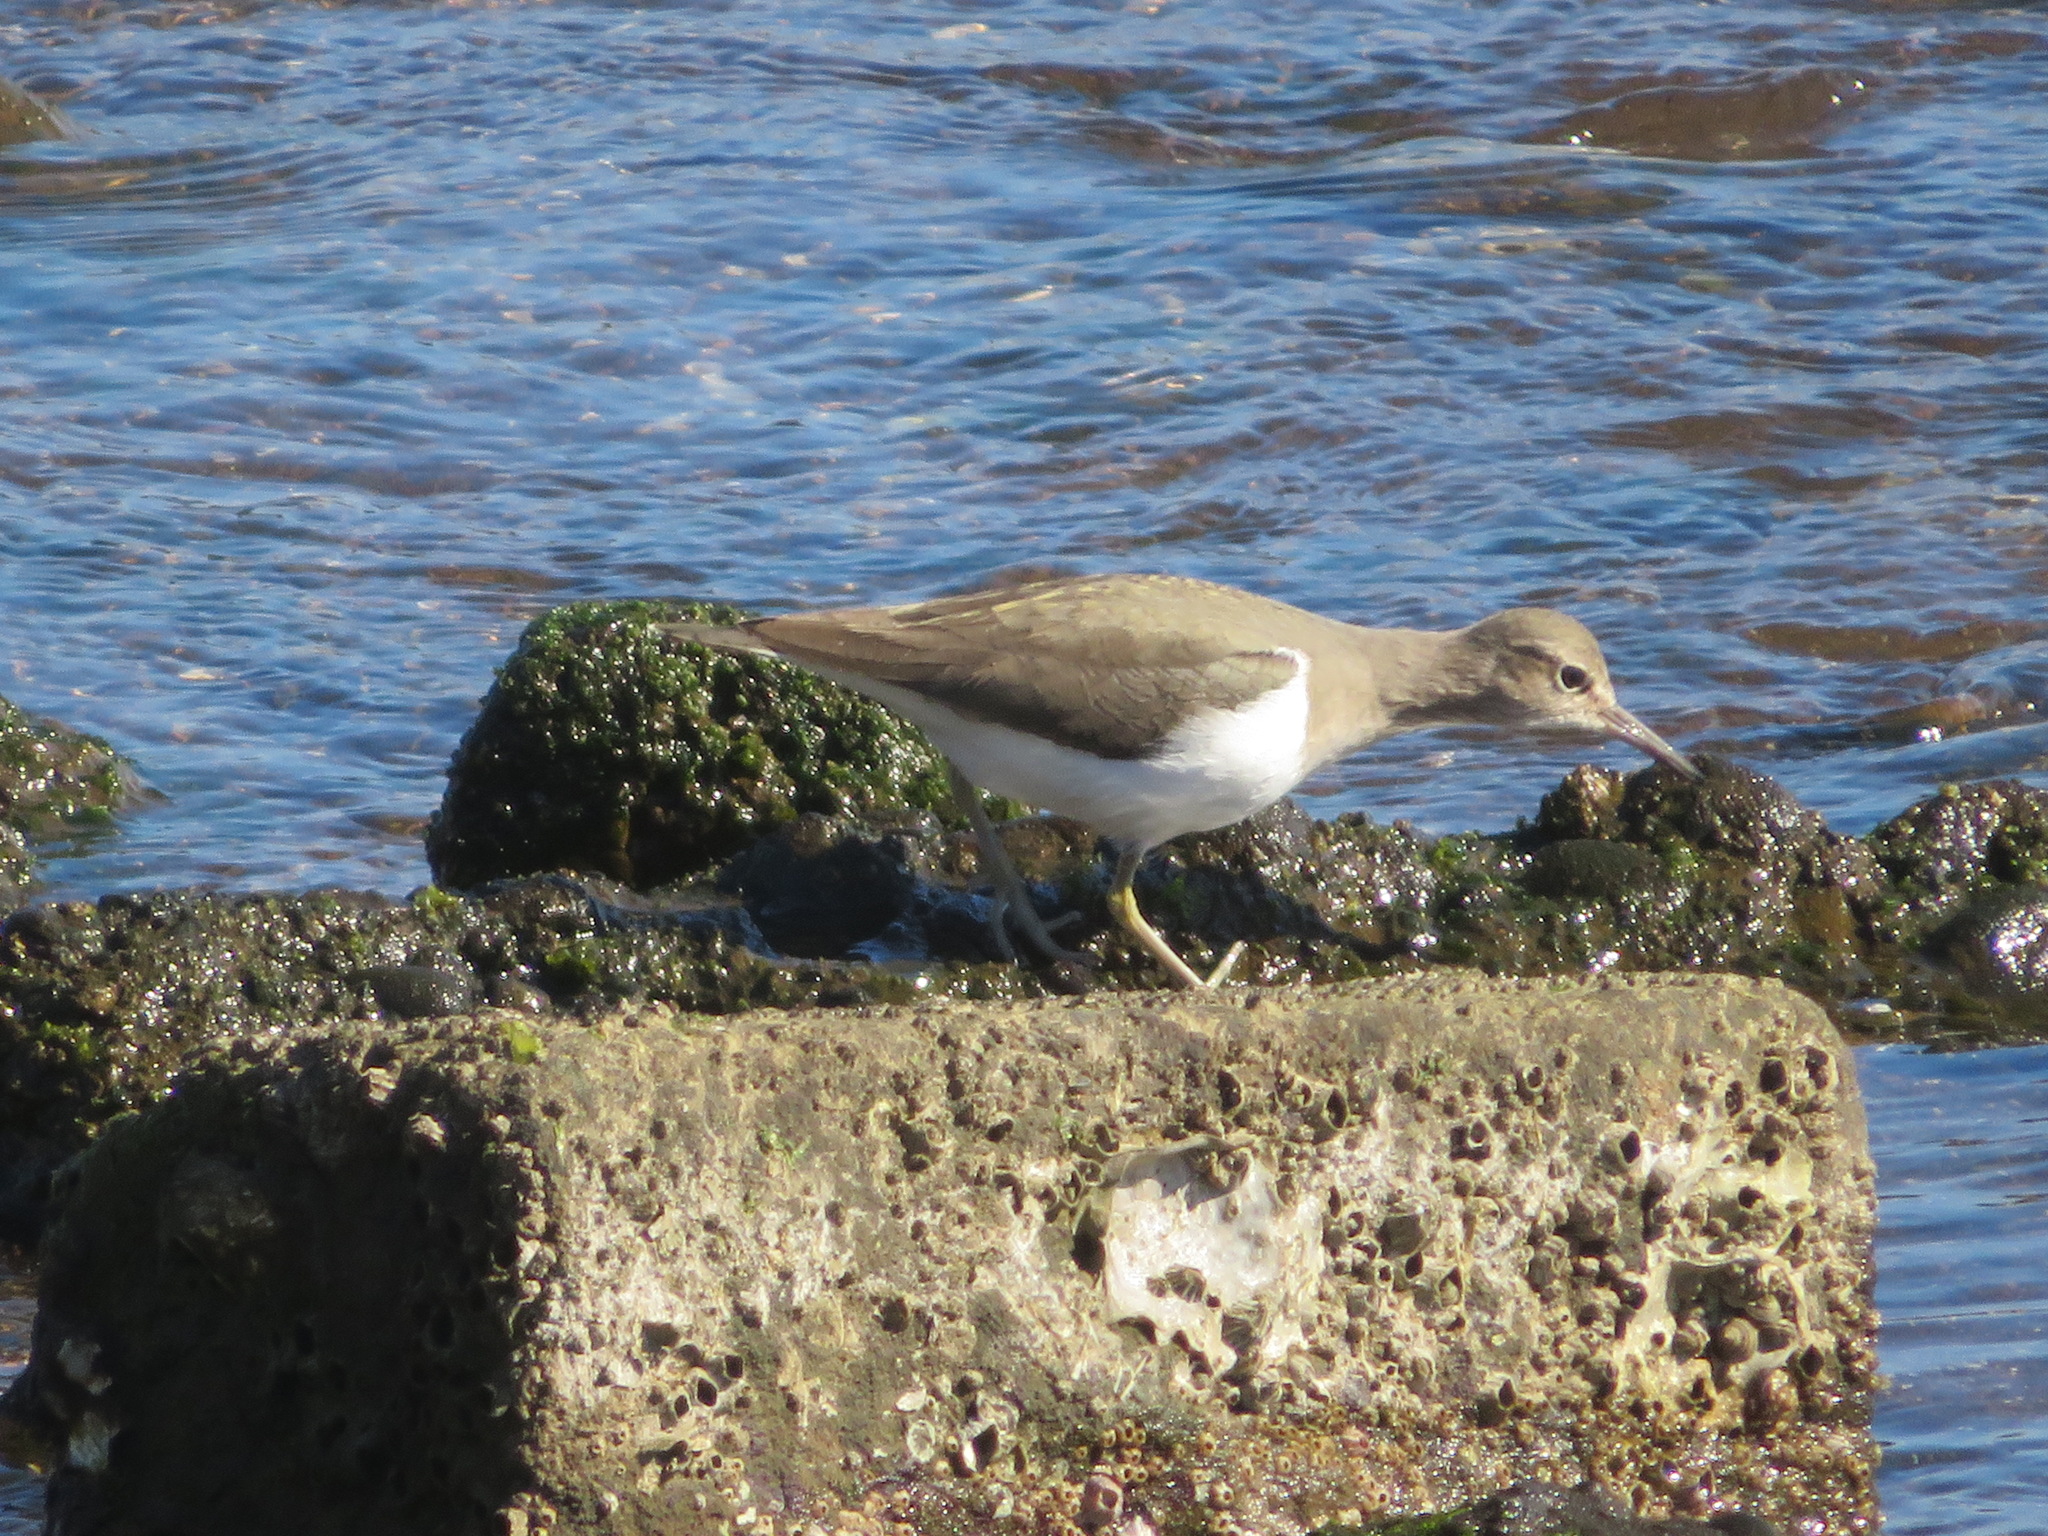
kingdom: Animalia
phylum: Chordata
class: Aves
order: Charadriiformes
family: Scolopacidae
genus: Actitis
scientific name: Actitis hypoleucos
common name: Common sandpiper
